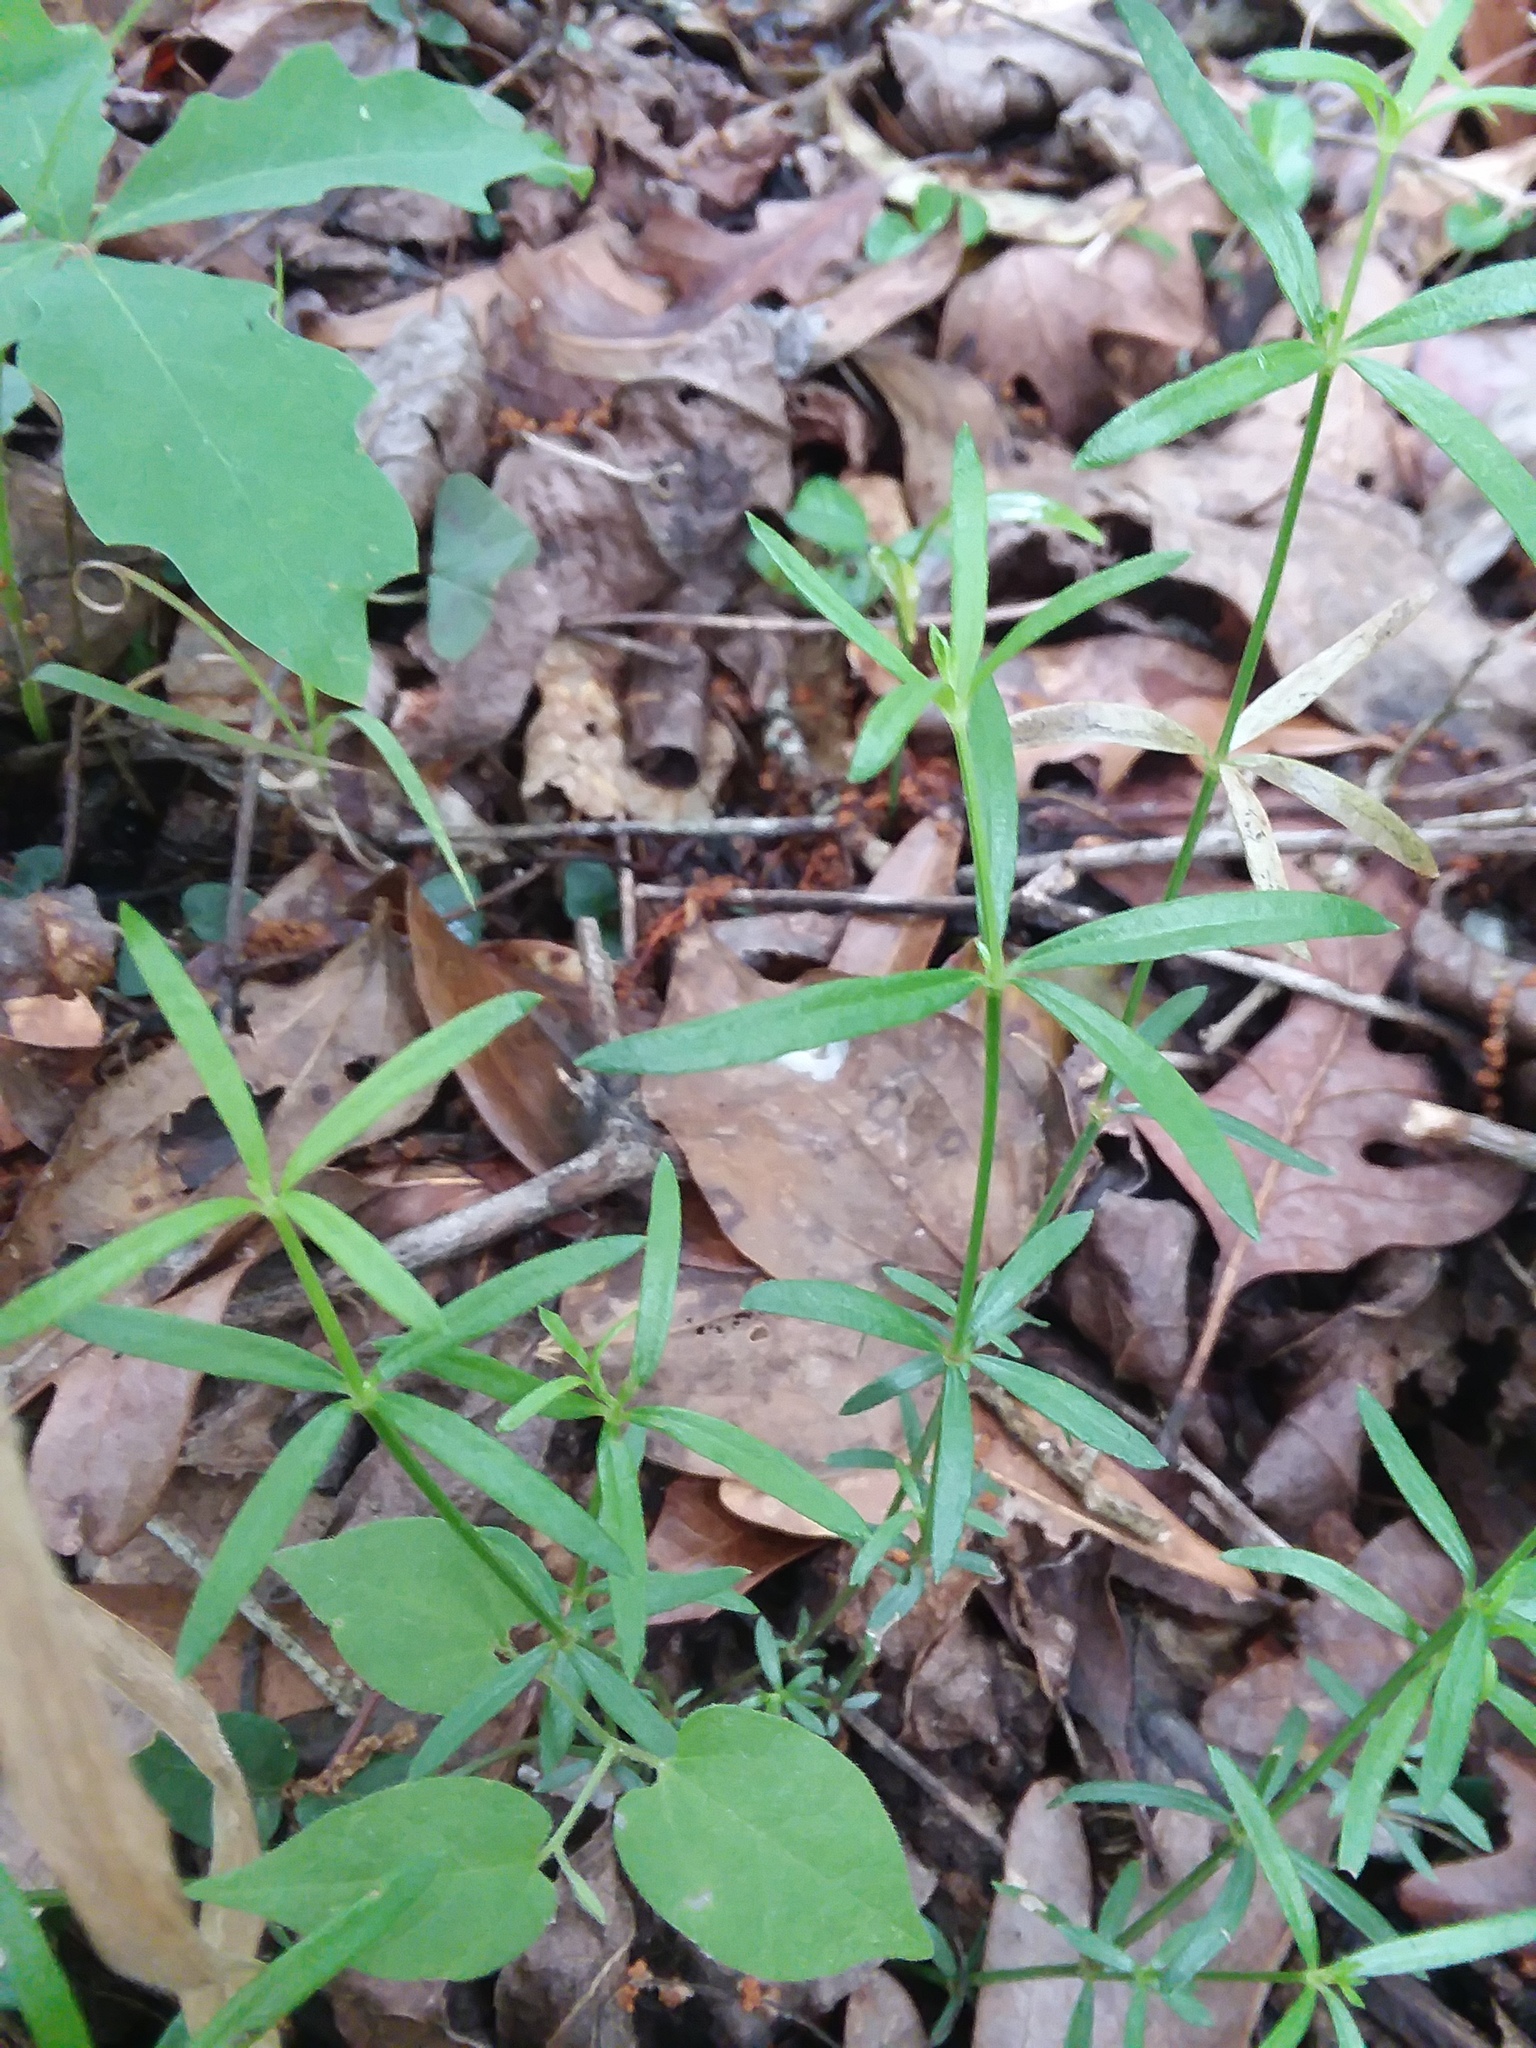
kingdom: Plantae
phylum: Tracheophyta
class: Magnoliopsida
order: Gentianales
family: Rubiaceae
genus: Galium
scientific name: Galium uniflorum
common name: One-flower bedstraw
